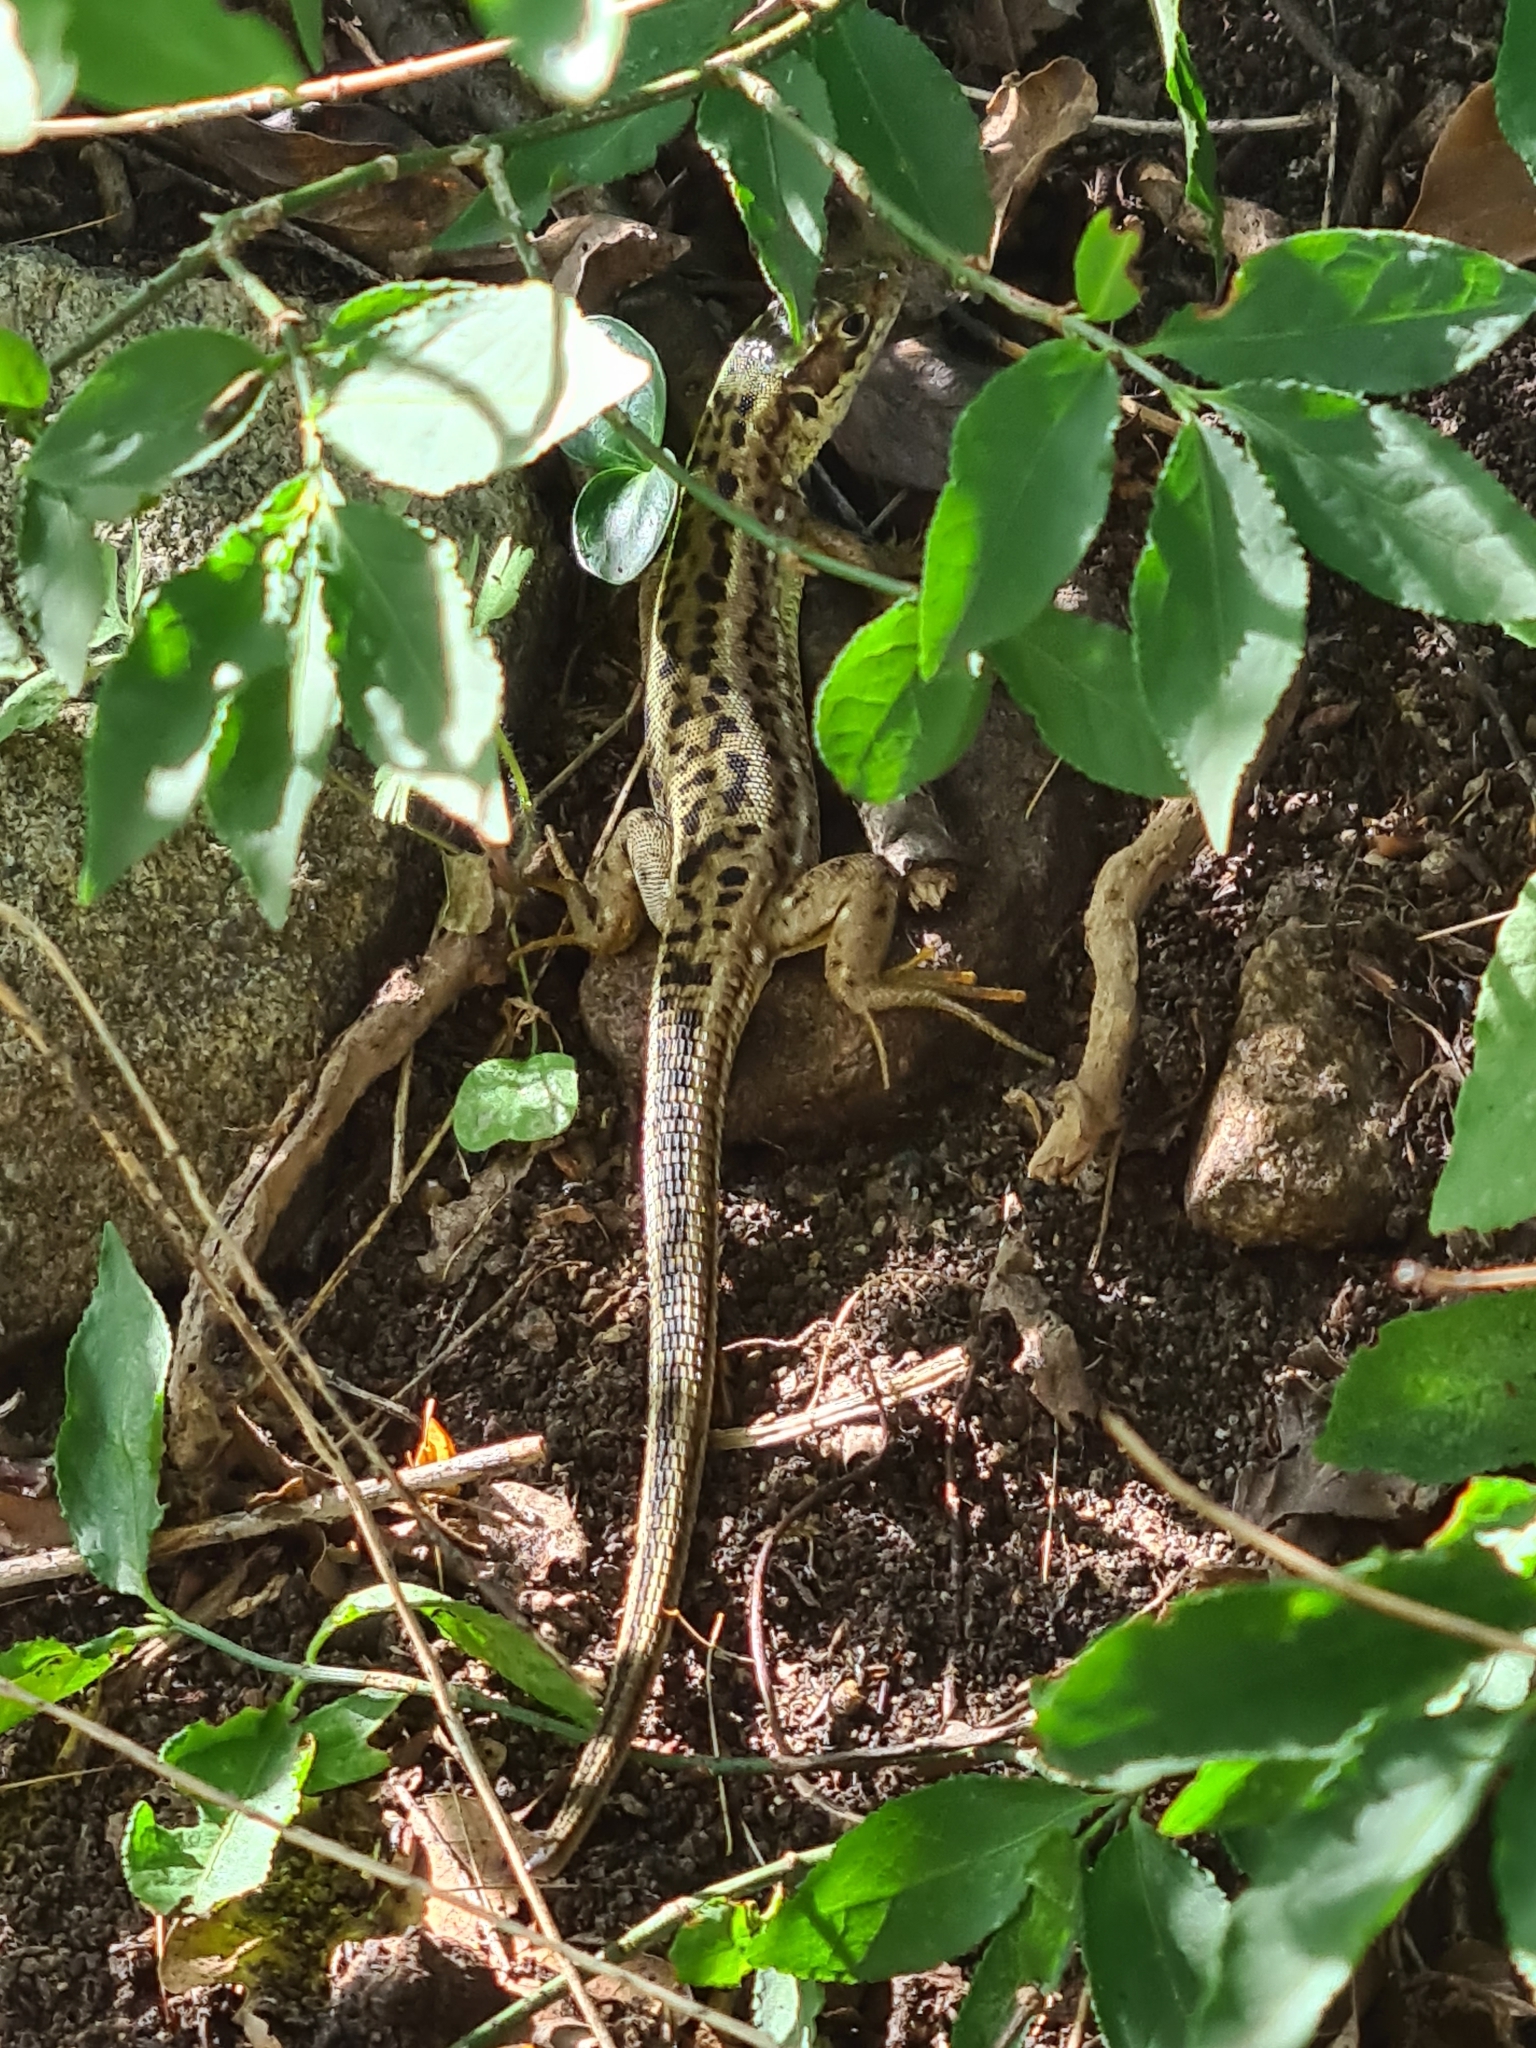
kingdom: Animalia
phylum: Chordata
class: Squamata
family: Lacertidae
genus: Lacerta
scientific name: Lacerta viridis
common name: European green lizard
